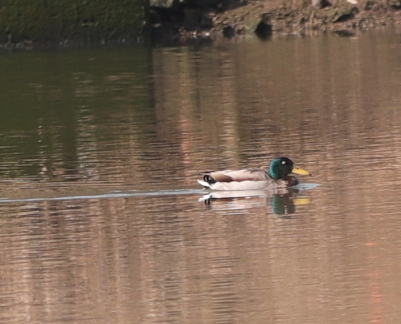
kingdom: Animalia
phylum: Chordata
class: Aves
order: Anseriformes
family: Anatidae
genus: Anas
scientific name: Anas platyrhynchos
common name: Mallard
